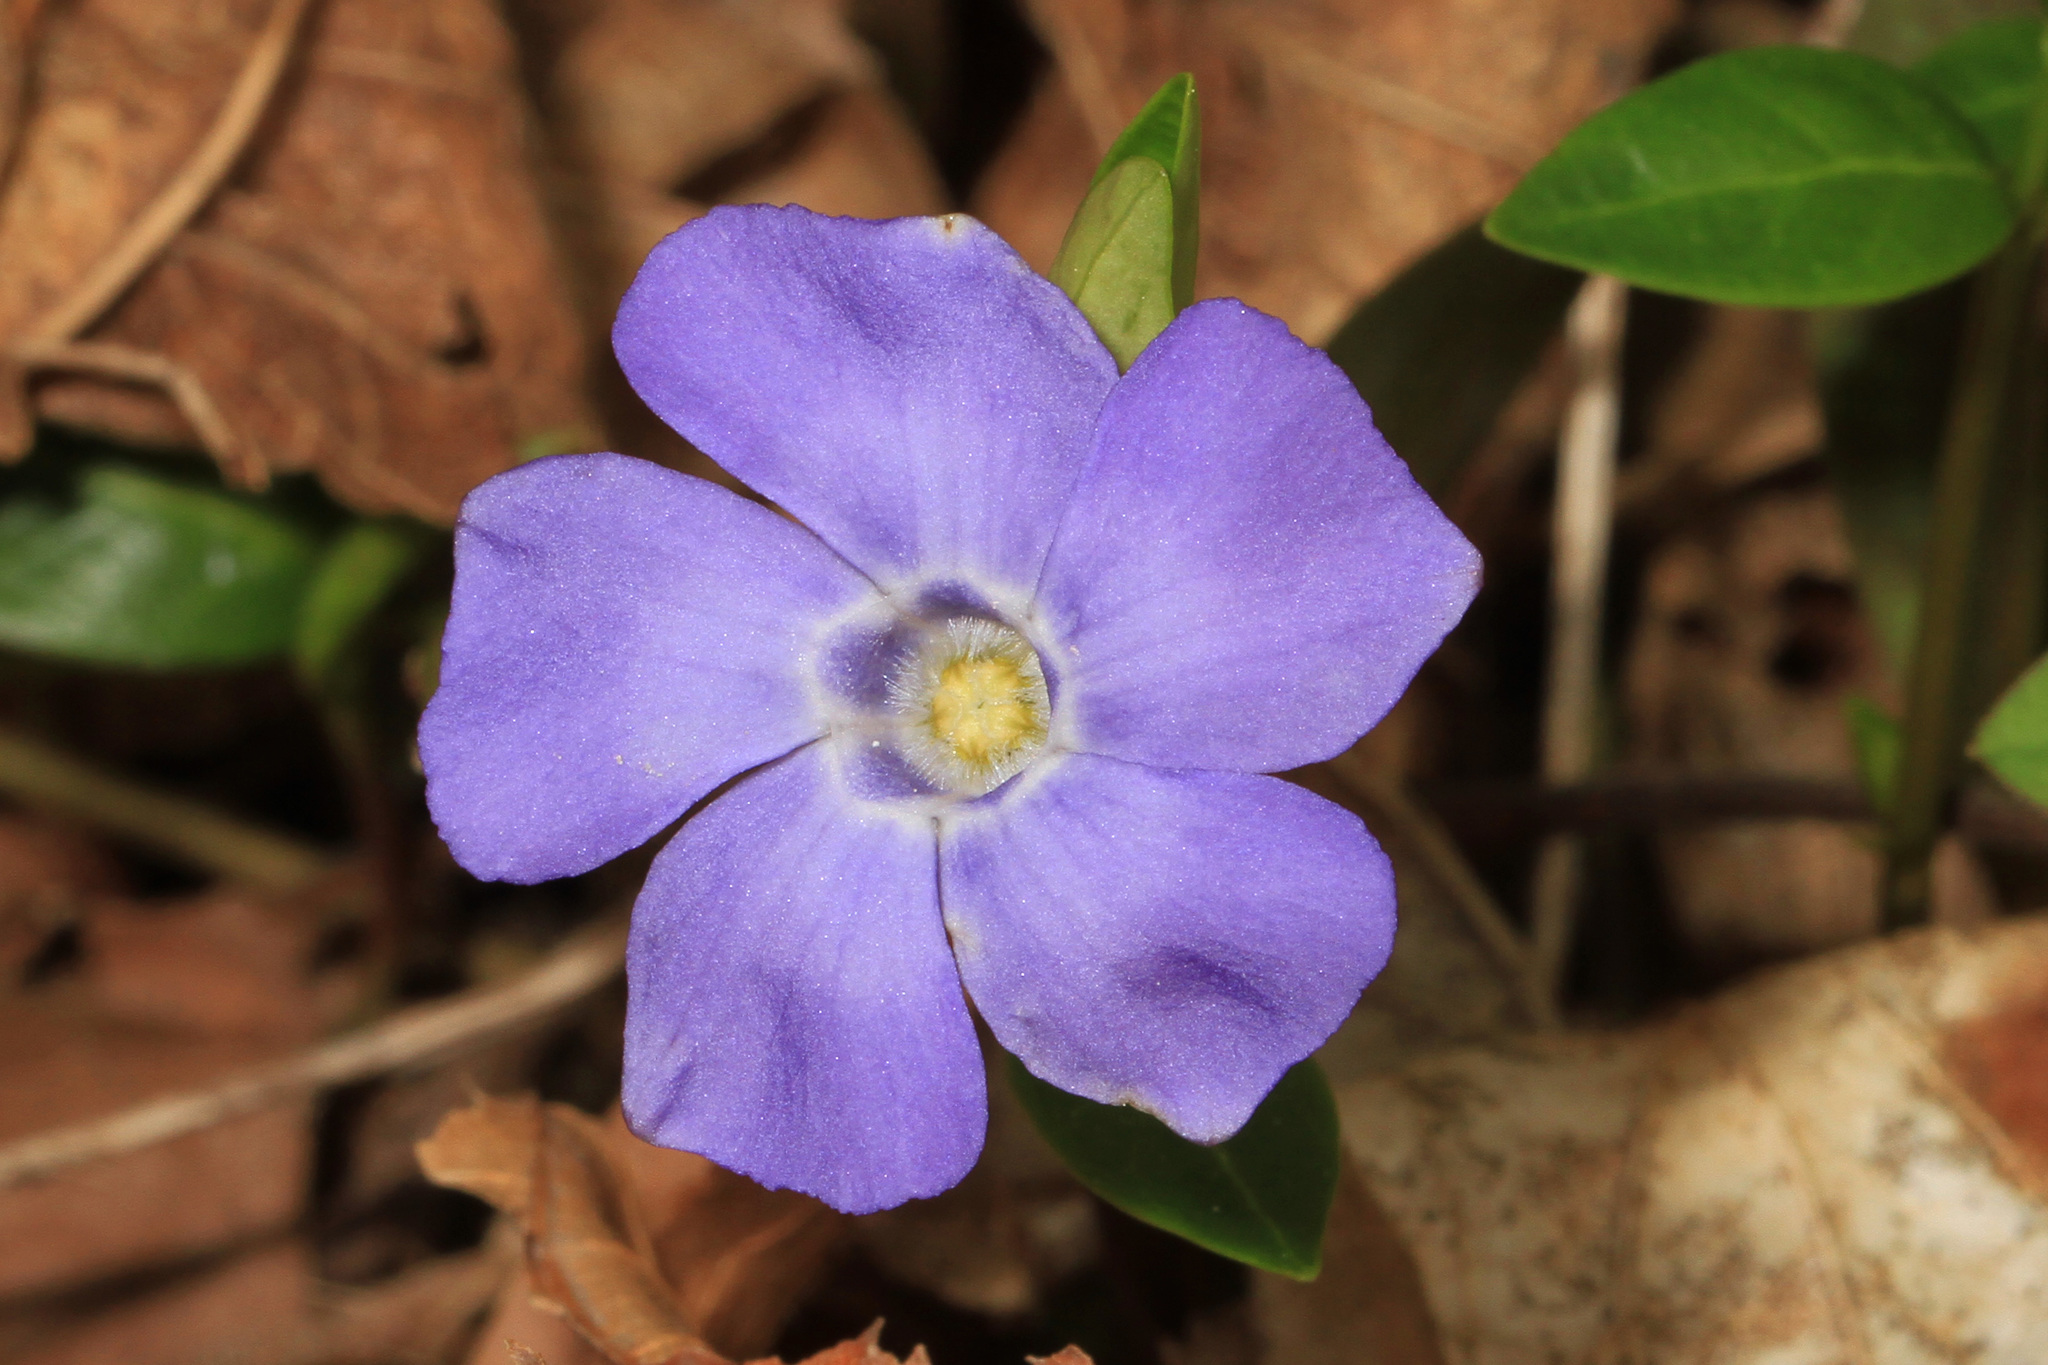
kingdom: Plantae
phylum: Tracheophyta
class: Magnoliopsida
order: Gentianales
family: Apocynaceae
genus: Vinca
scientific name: Vinca minor
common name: Lesser periwinkle
